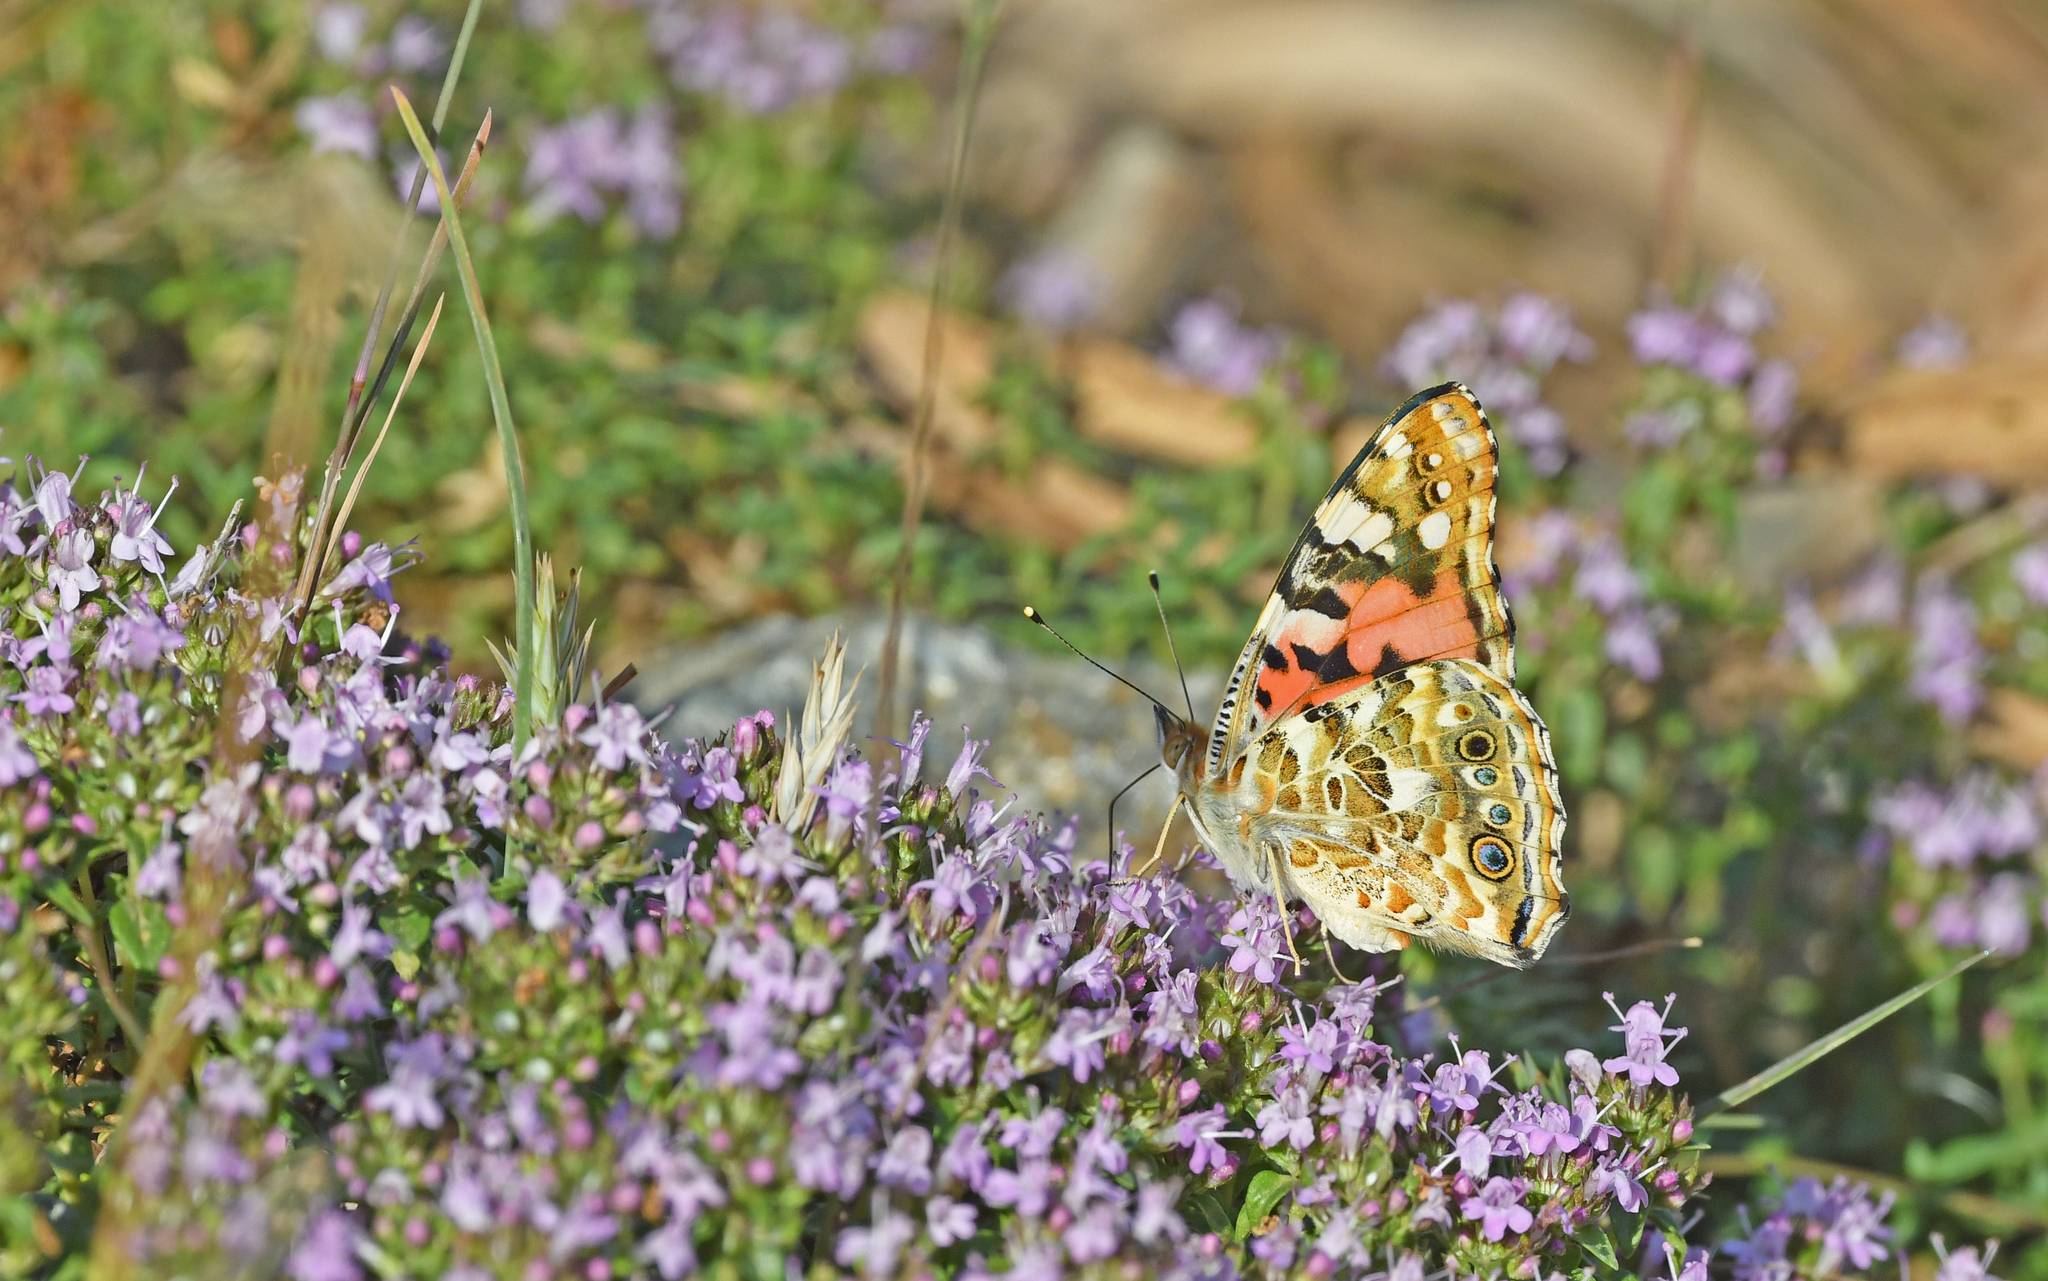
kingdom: Animalia
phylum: Arthropoda
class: Insecta
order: Lepidoptera
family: Nymphalidae
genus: Vanessa
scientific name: Vanessa cardui
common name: Painted lady
